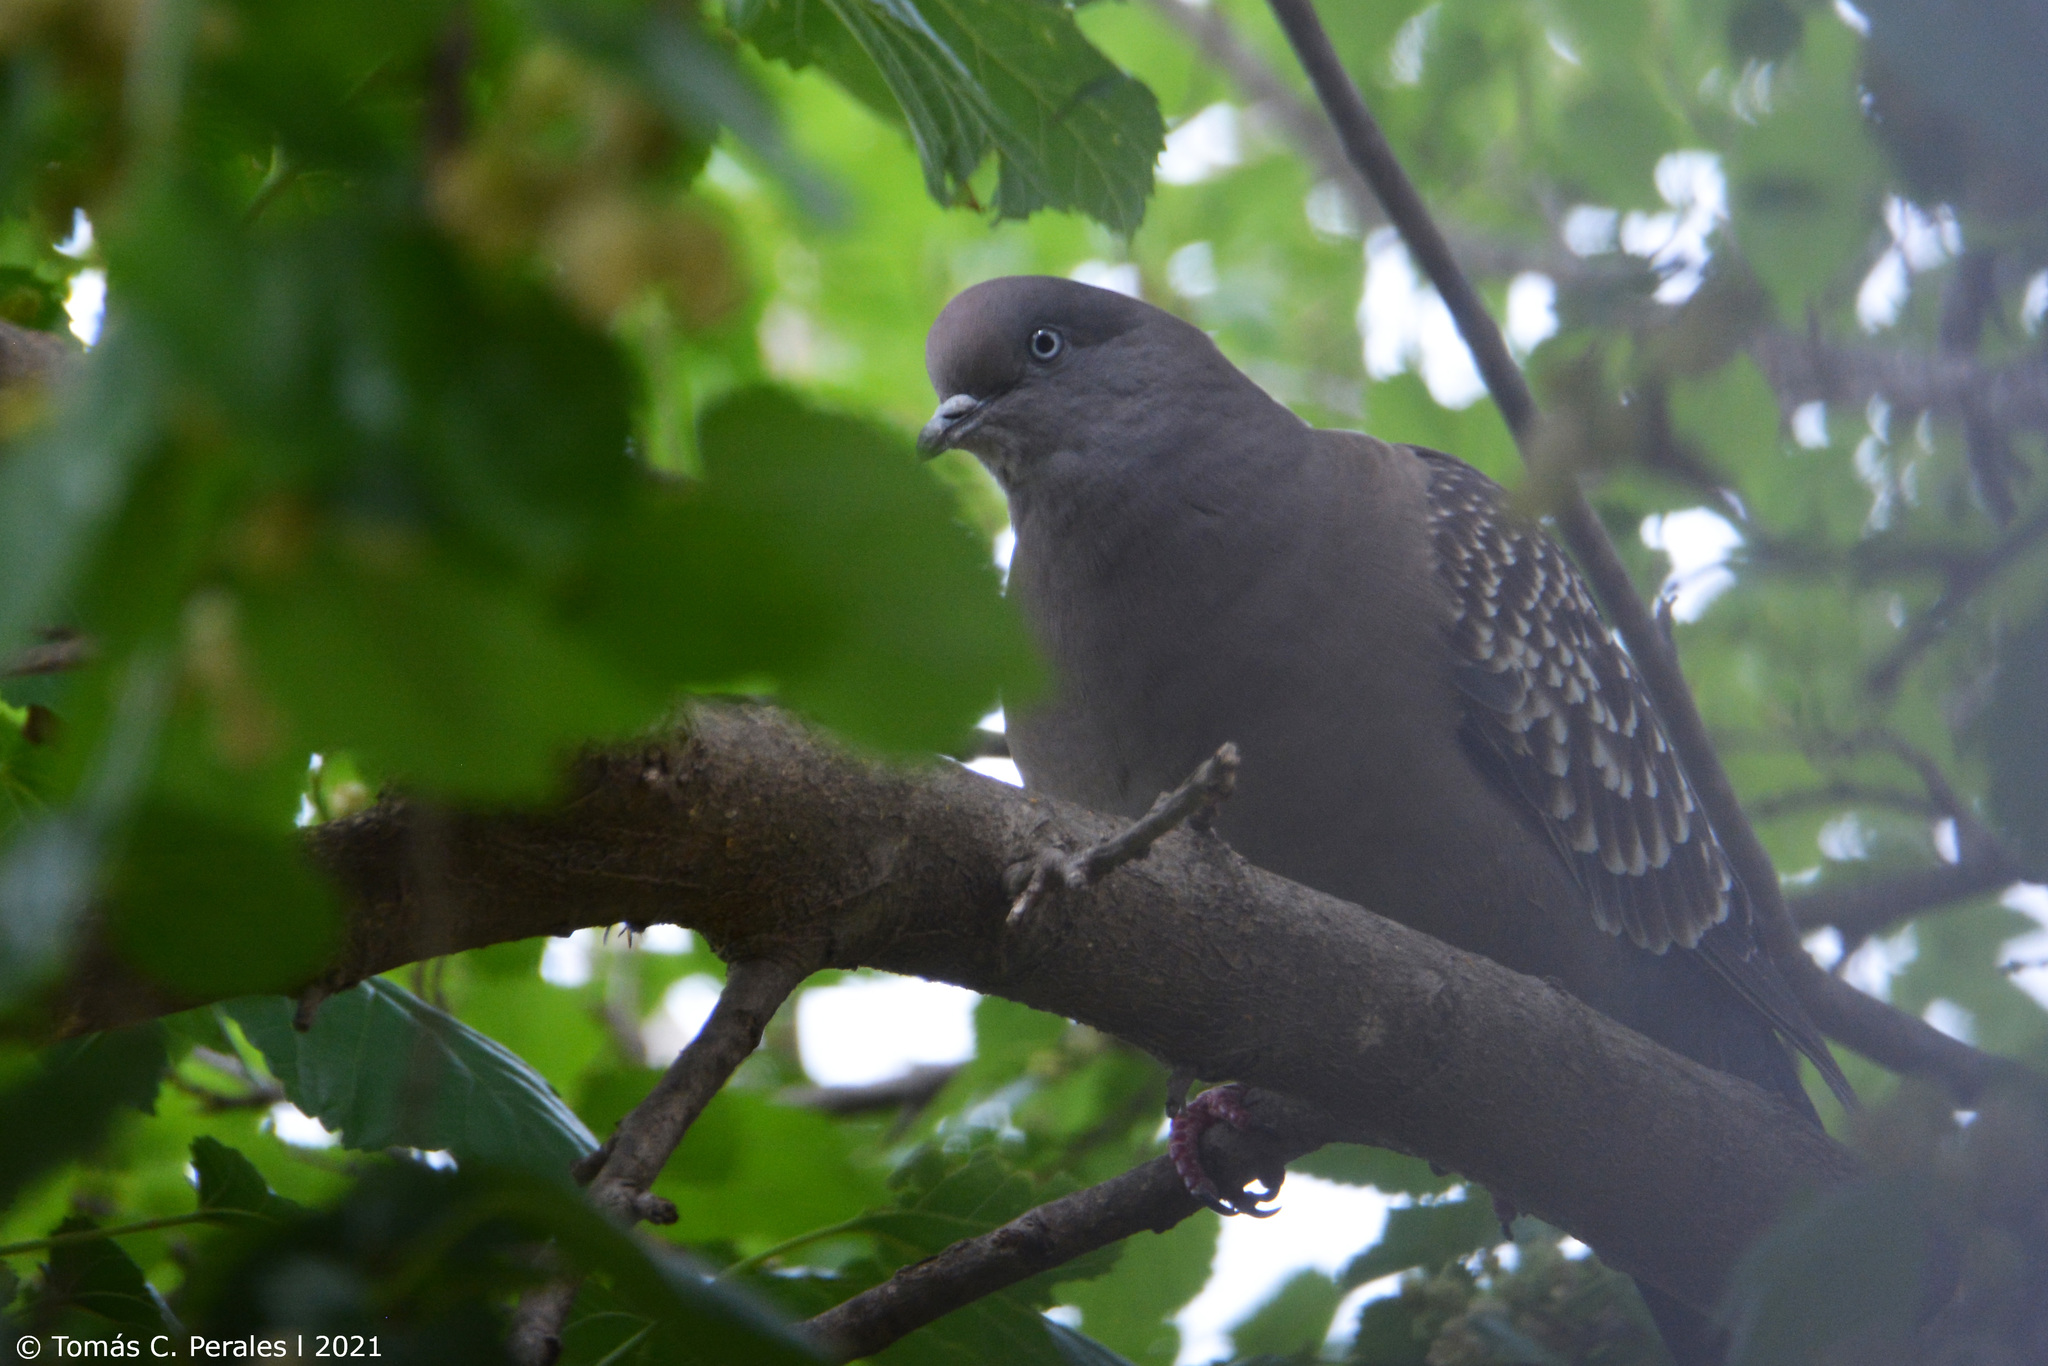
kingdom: Animalia
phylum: Chordata
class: Aves
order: Columbiformes
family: Columbidae
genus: Patagioenas
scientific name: Patagioenas maculosa
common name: Spot-winged pigeon
